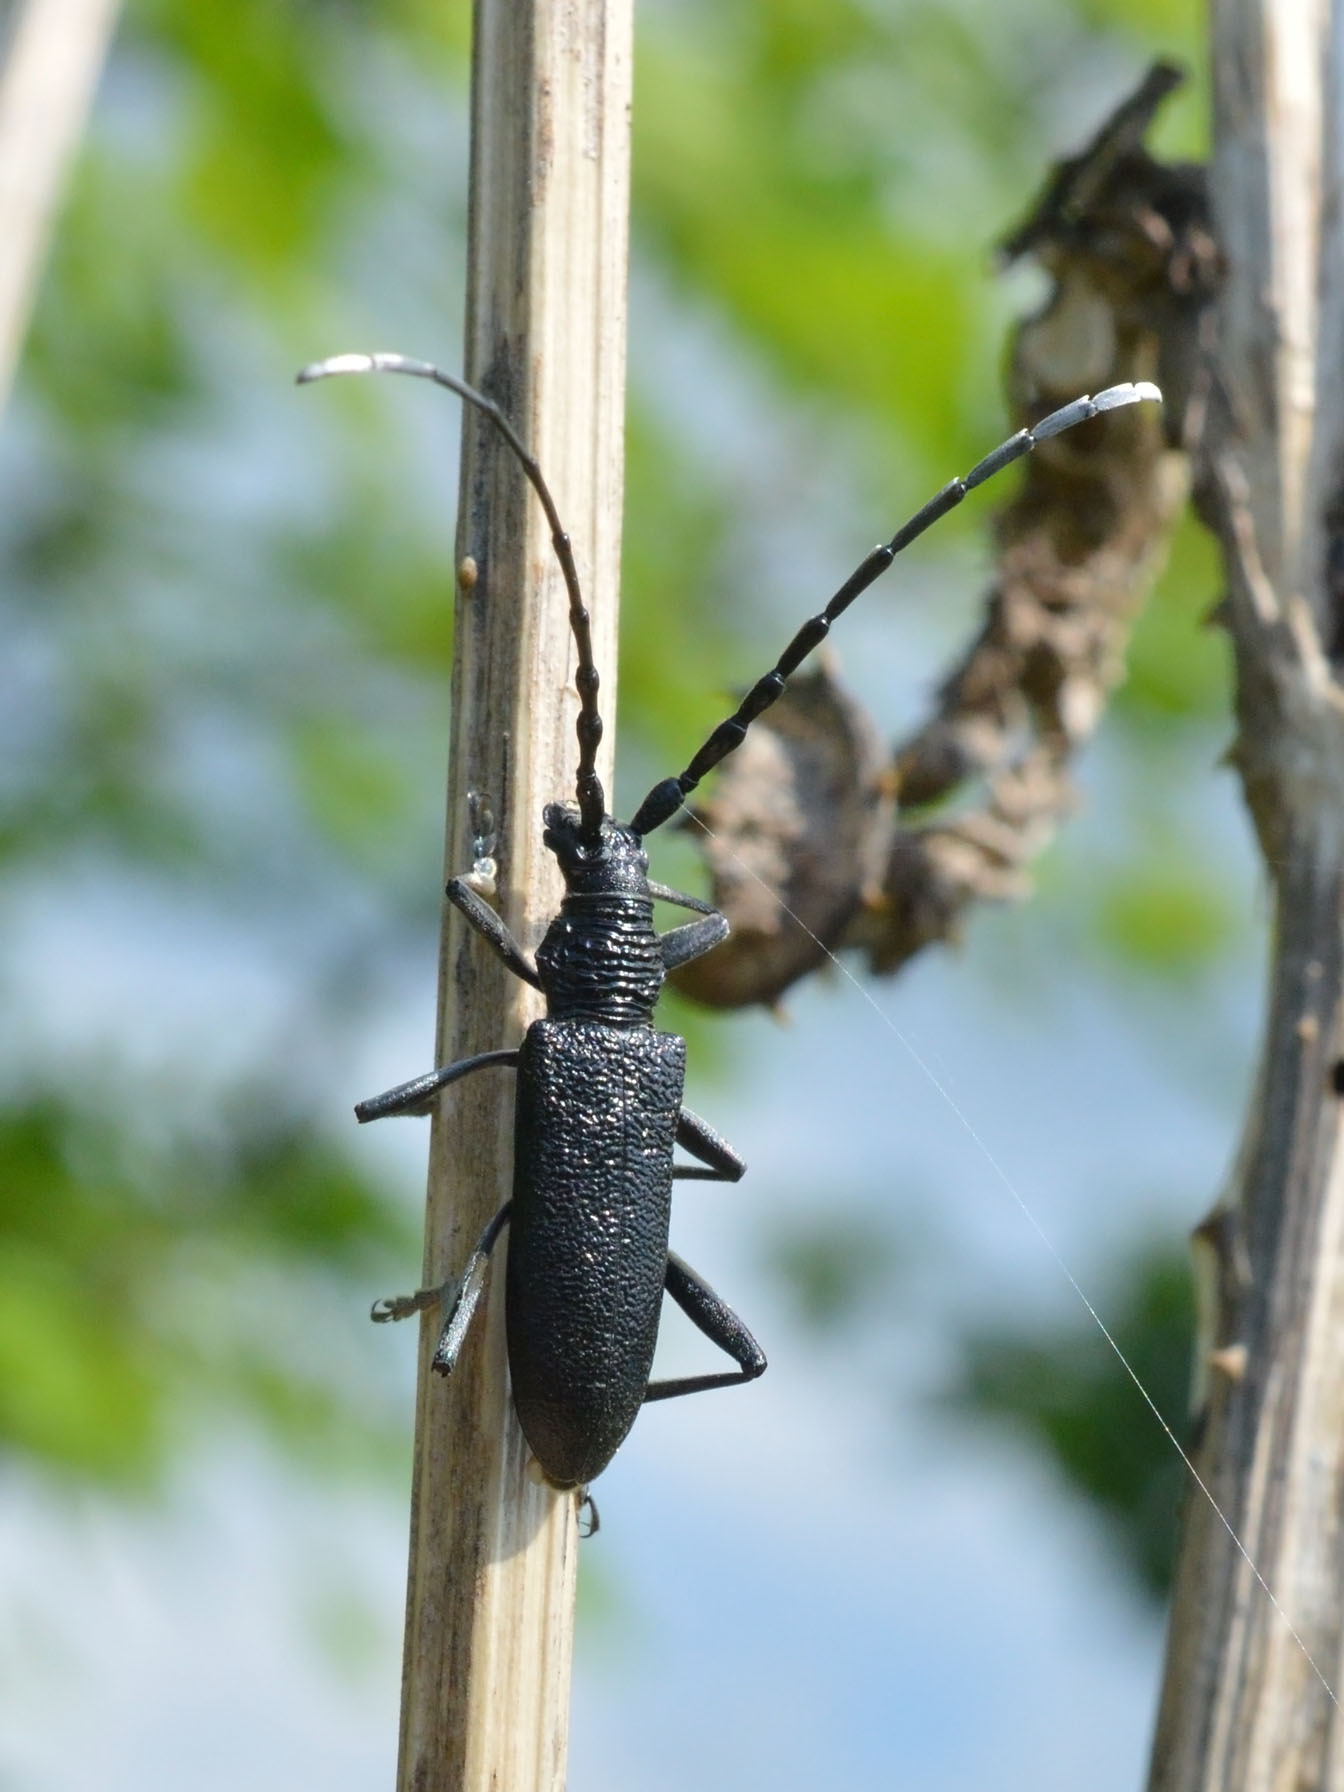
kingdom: Animalia
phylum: Arthropoda
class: Insecta
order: Coleoptera
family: Cerambycidae
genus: Cerambyx
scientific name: Cerambyx scopolii
